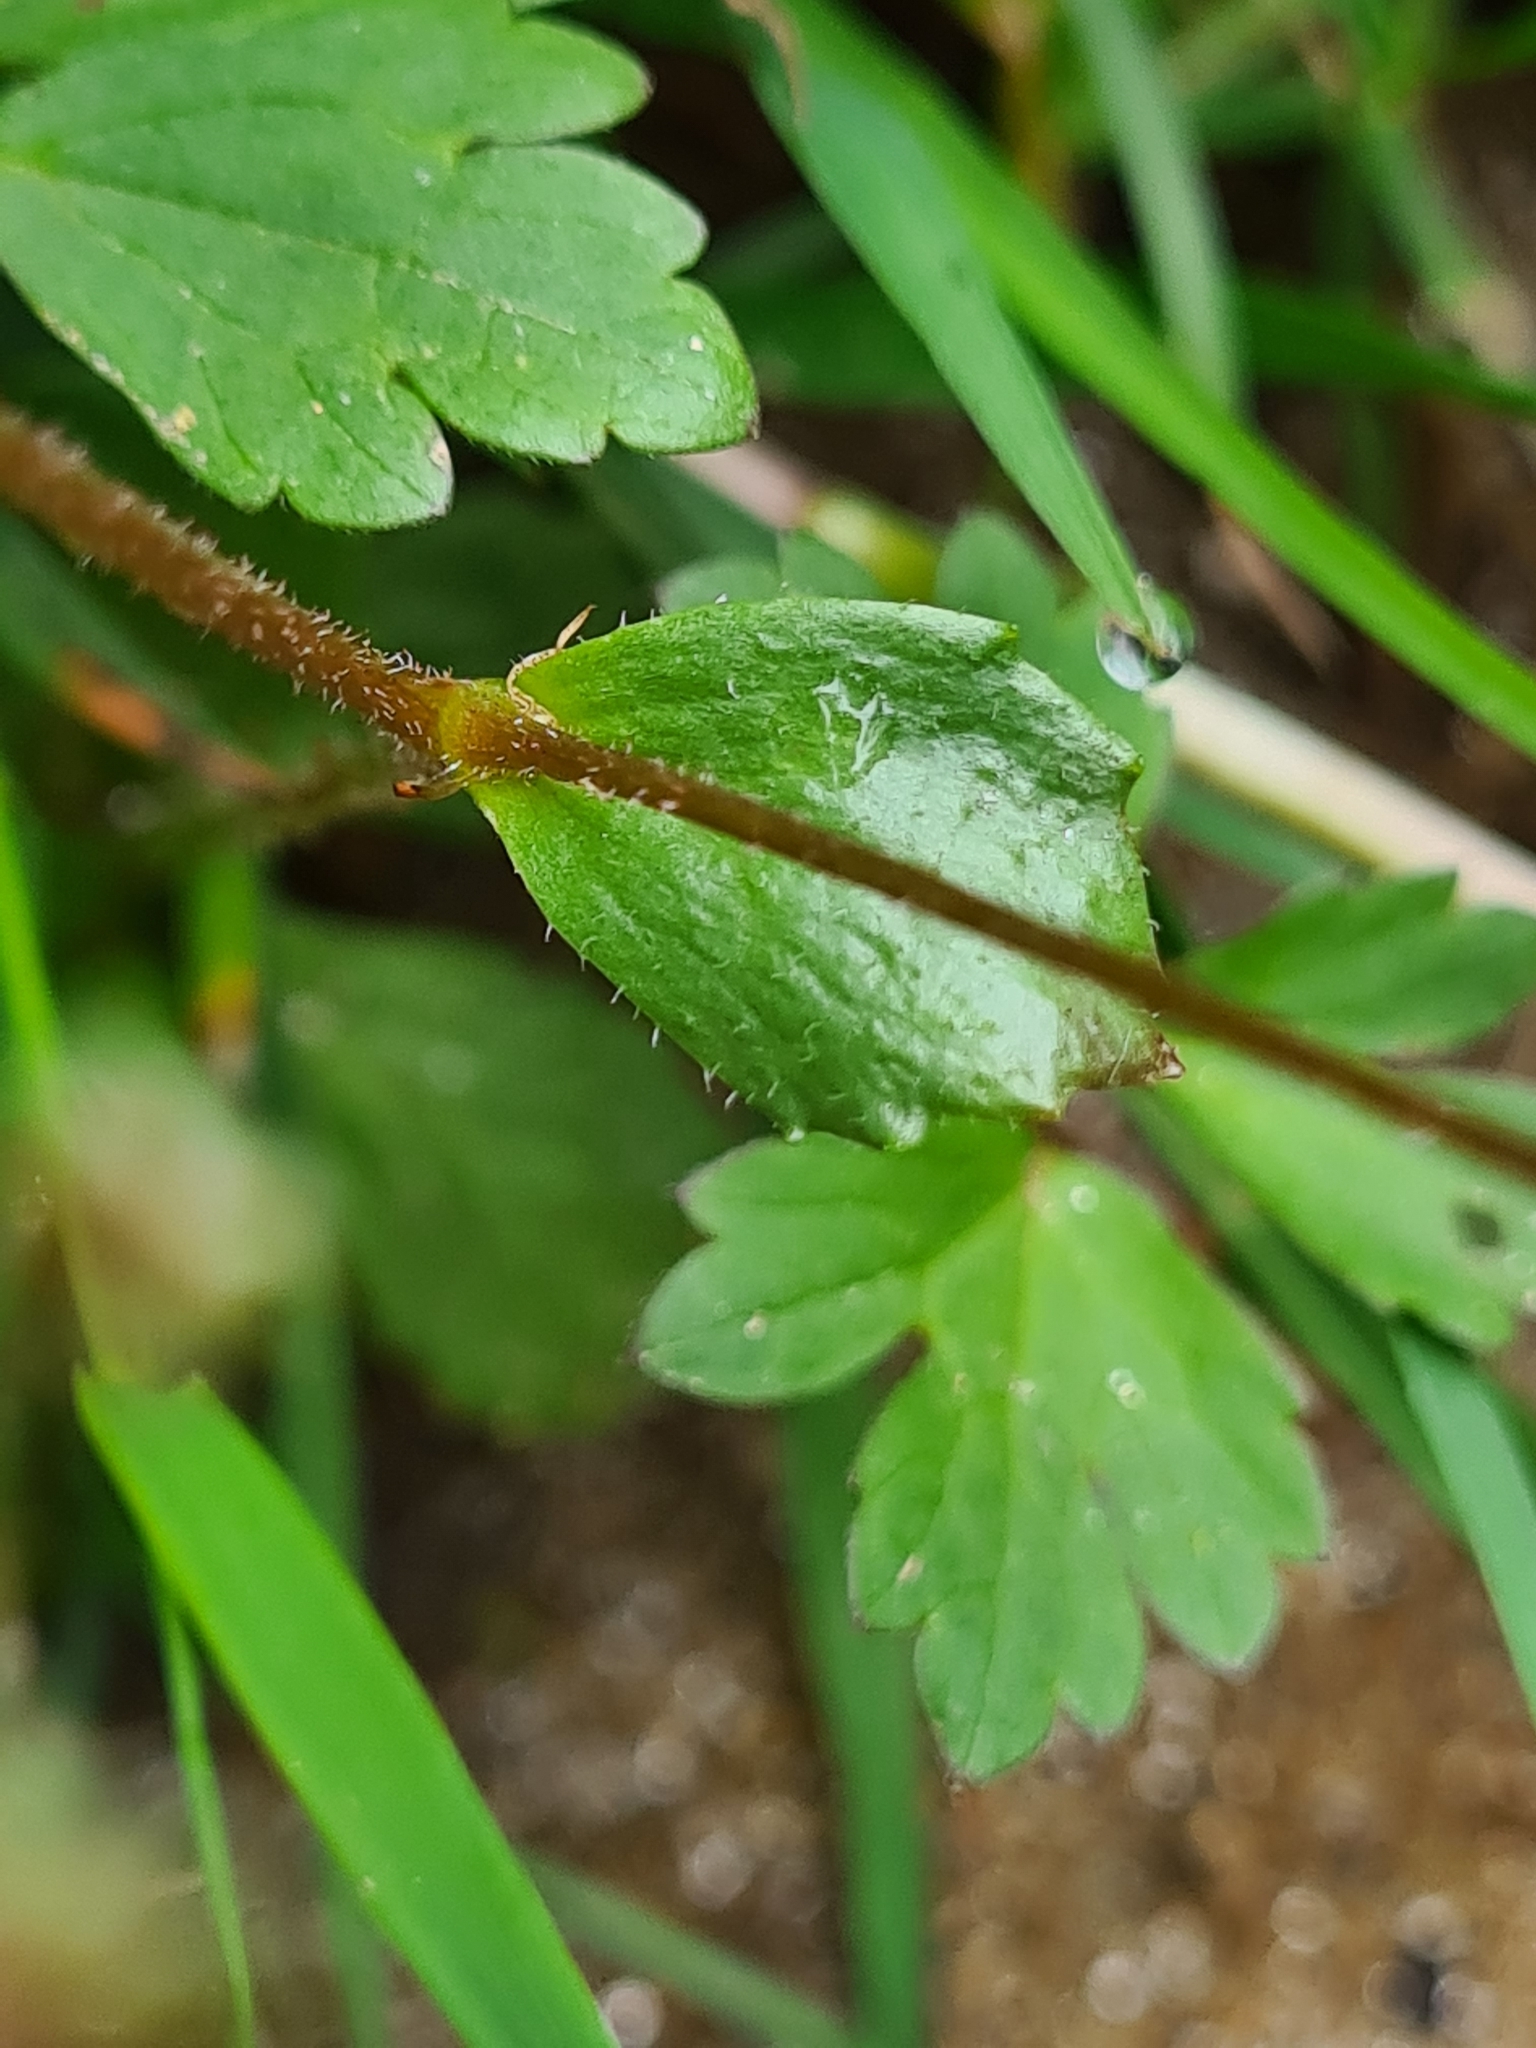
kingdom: Plantae
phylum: Tracheophyta
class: Magnoliopsida
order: Saxifragales
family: Saxifragaceae
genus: Micranthes
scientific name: Micranthes stellaris
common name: Starry saxifrage
